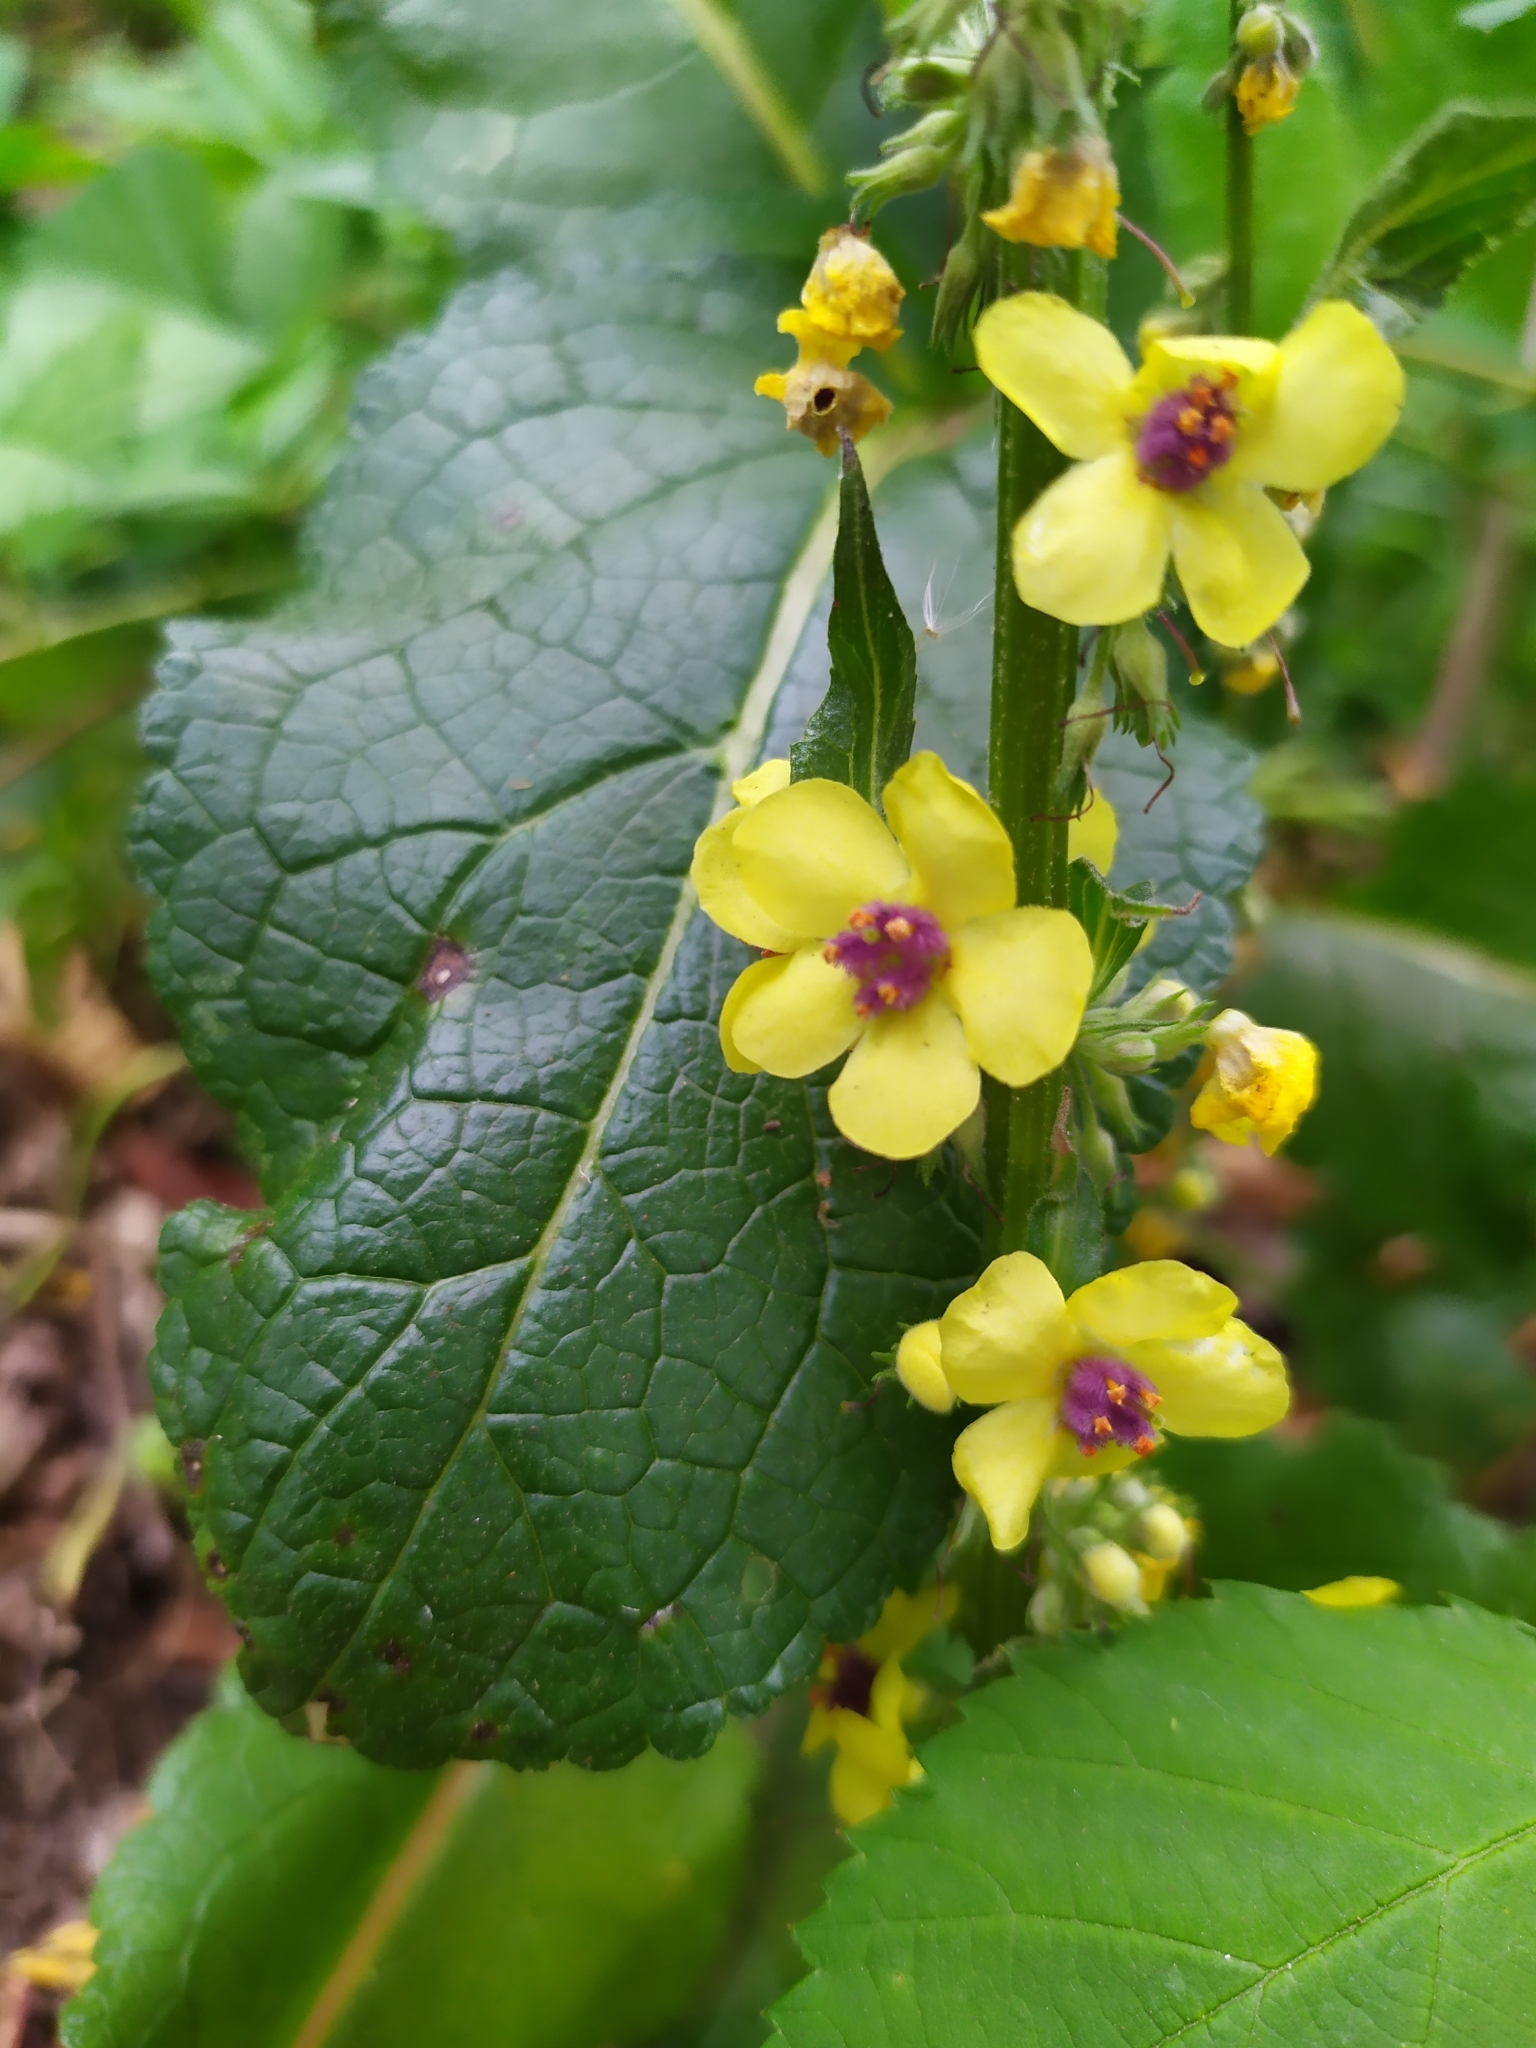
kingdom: Plantae
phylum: Tracheophyta
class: Magnoliopsida
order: Lamiales
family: Scrophulariaceae
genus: Verbascum
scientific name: Verbascum nigrum
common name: Dark mullein
